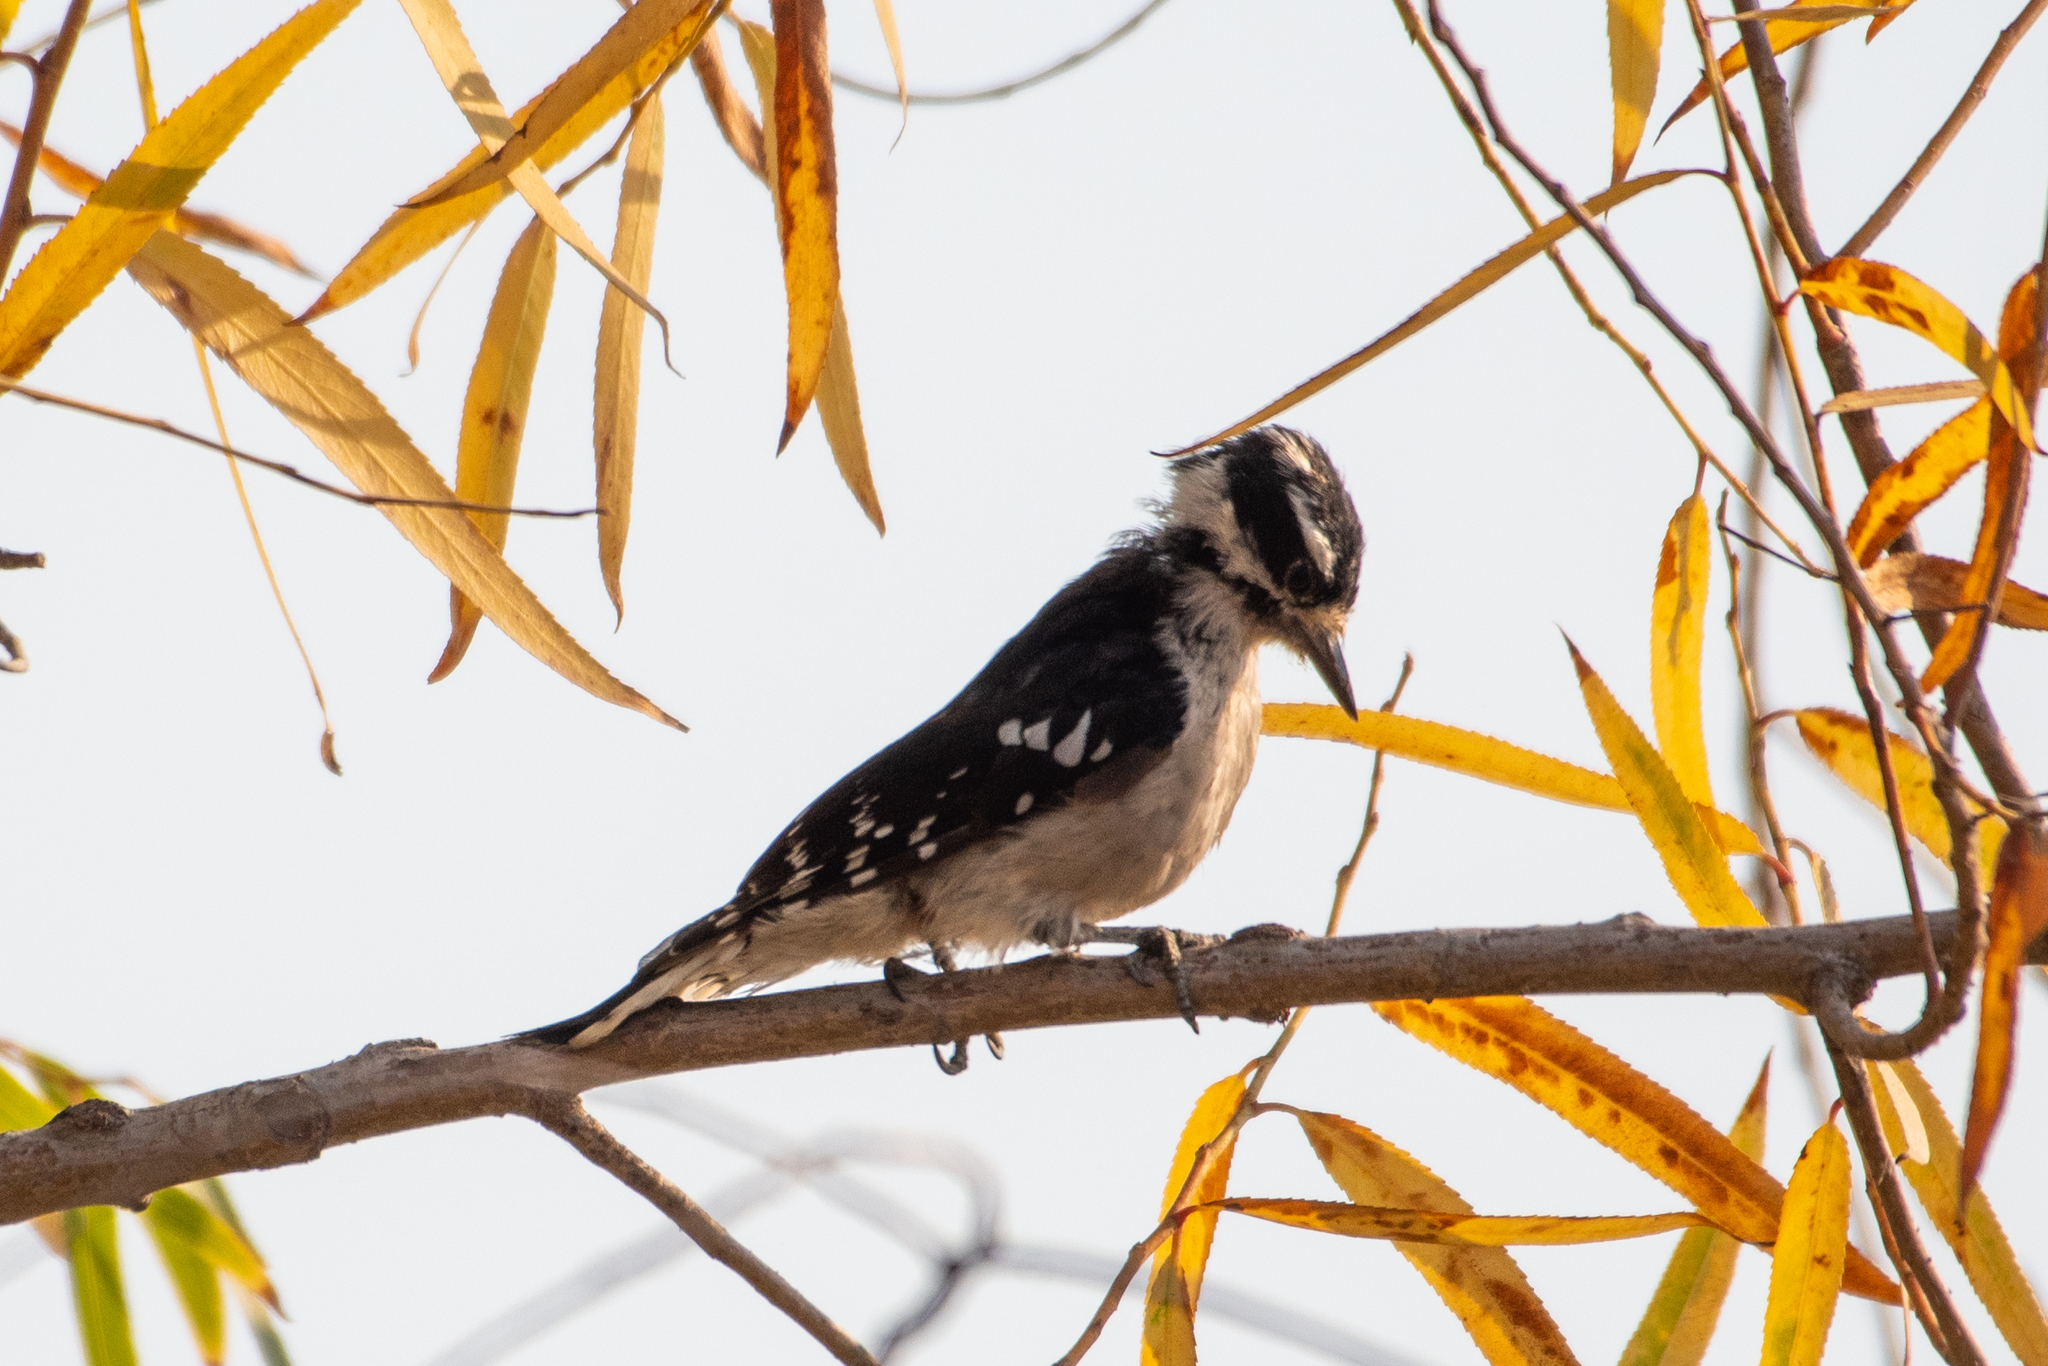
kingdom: Animalia
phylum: Chordata
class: Aves
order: Piciformes
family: Picidae
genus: Dryobates
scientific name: Dryobates pubescens
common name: Downy woodpecker
